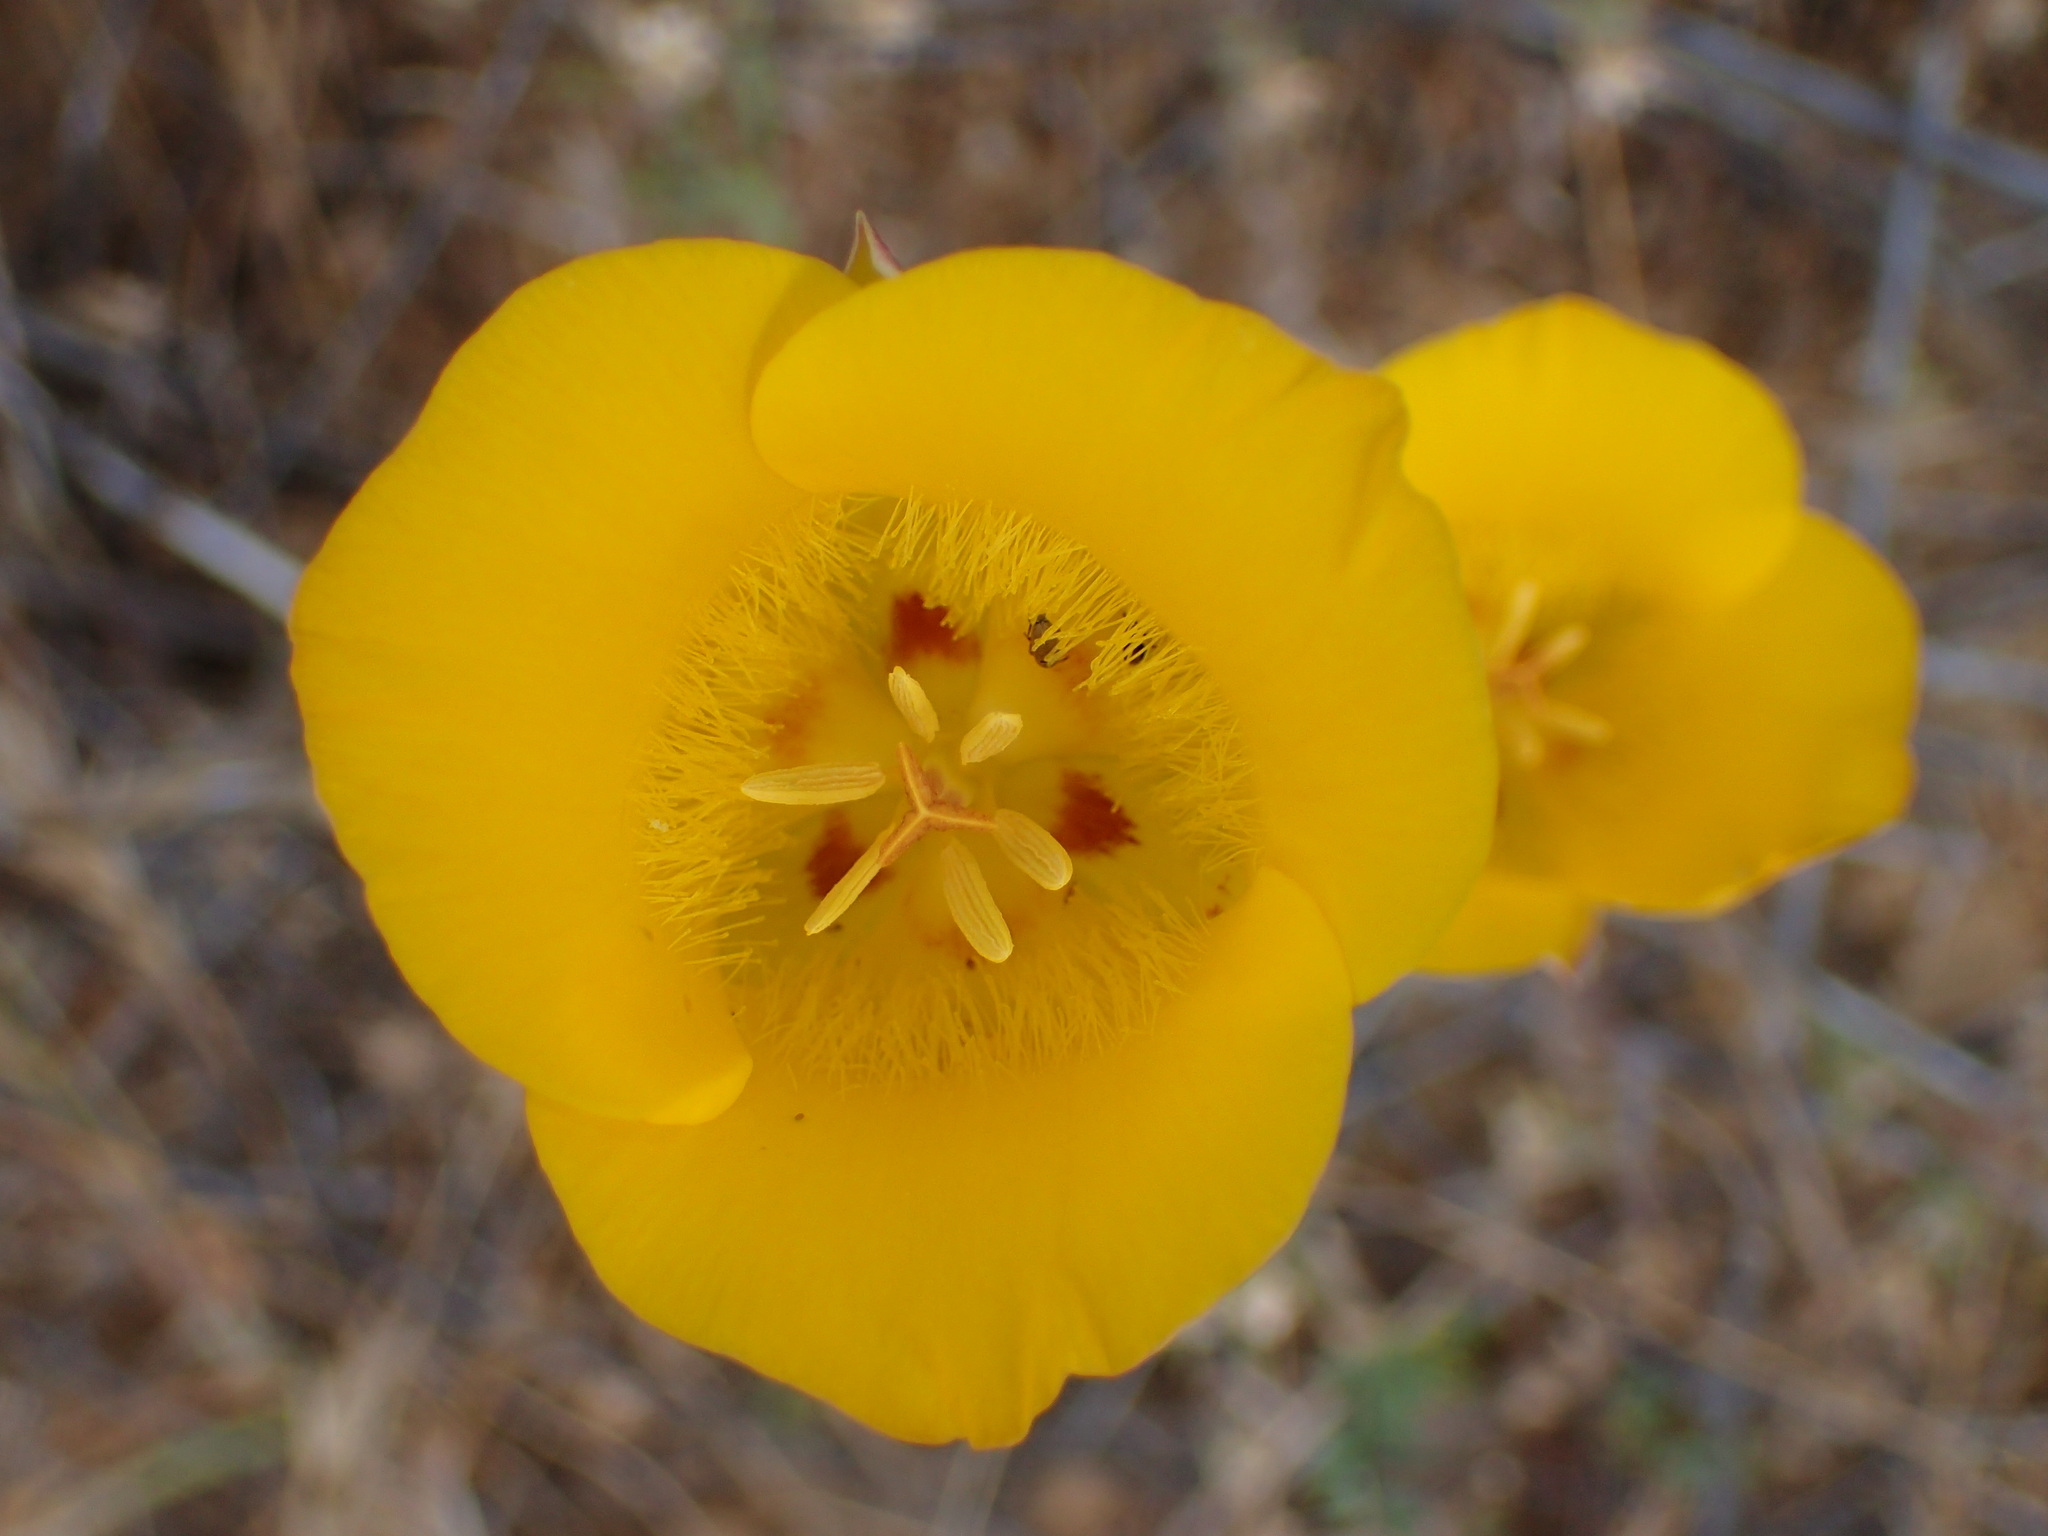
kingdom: Plantae
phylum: Tracheophyta
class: Liliopsida
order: Liliales
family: Liliaceae
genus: Calochortus
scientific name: Calochortus clavatus
